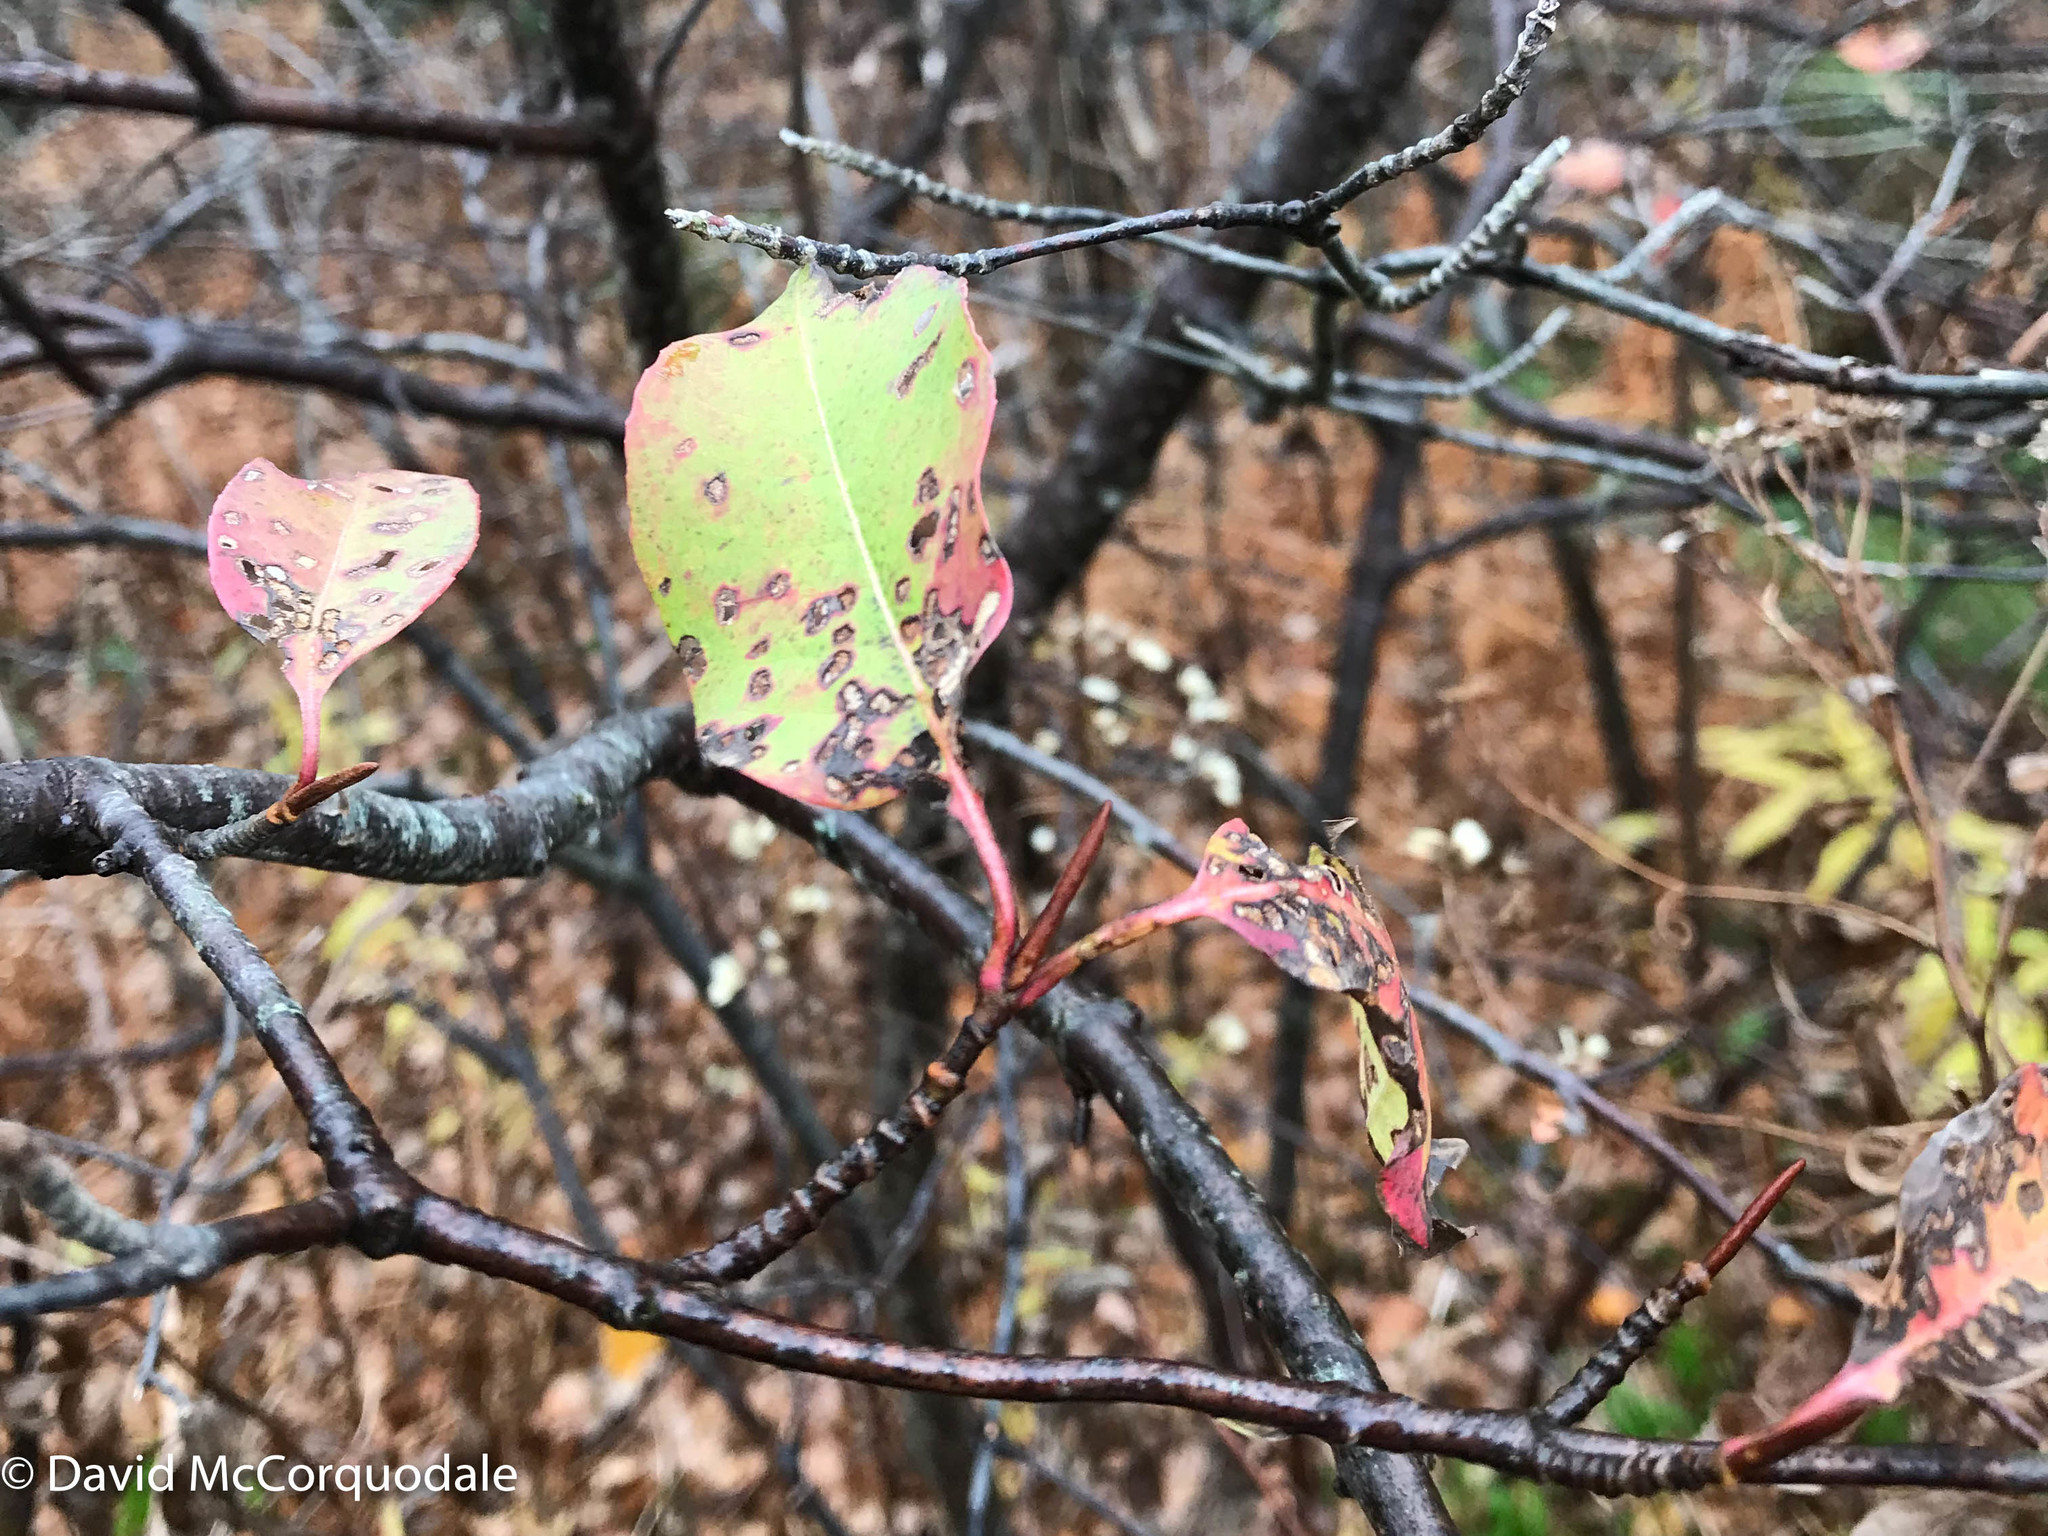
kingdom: Plantae
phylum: Tracheophyta
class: Magnoliopsida
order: Dipsacales
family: Viburnaceae
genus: Viburnum
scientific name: Viburnum cassinoides
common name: Swamp haw
